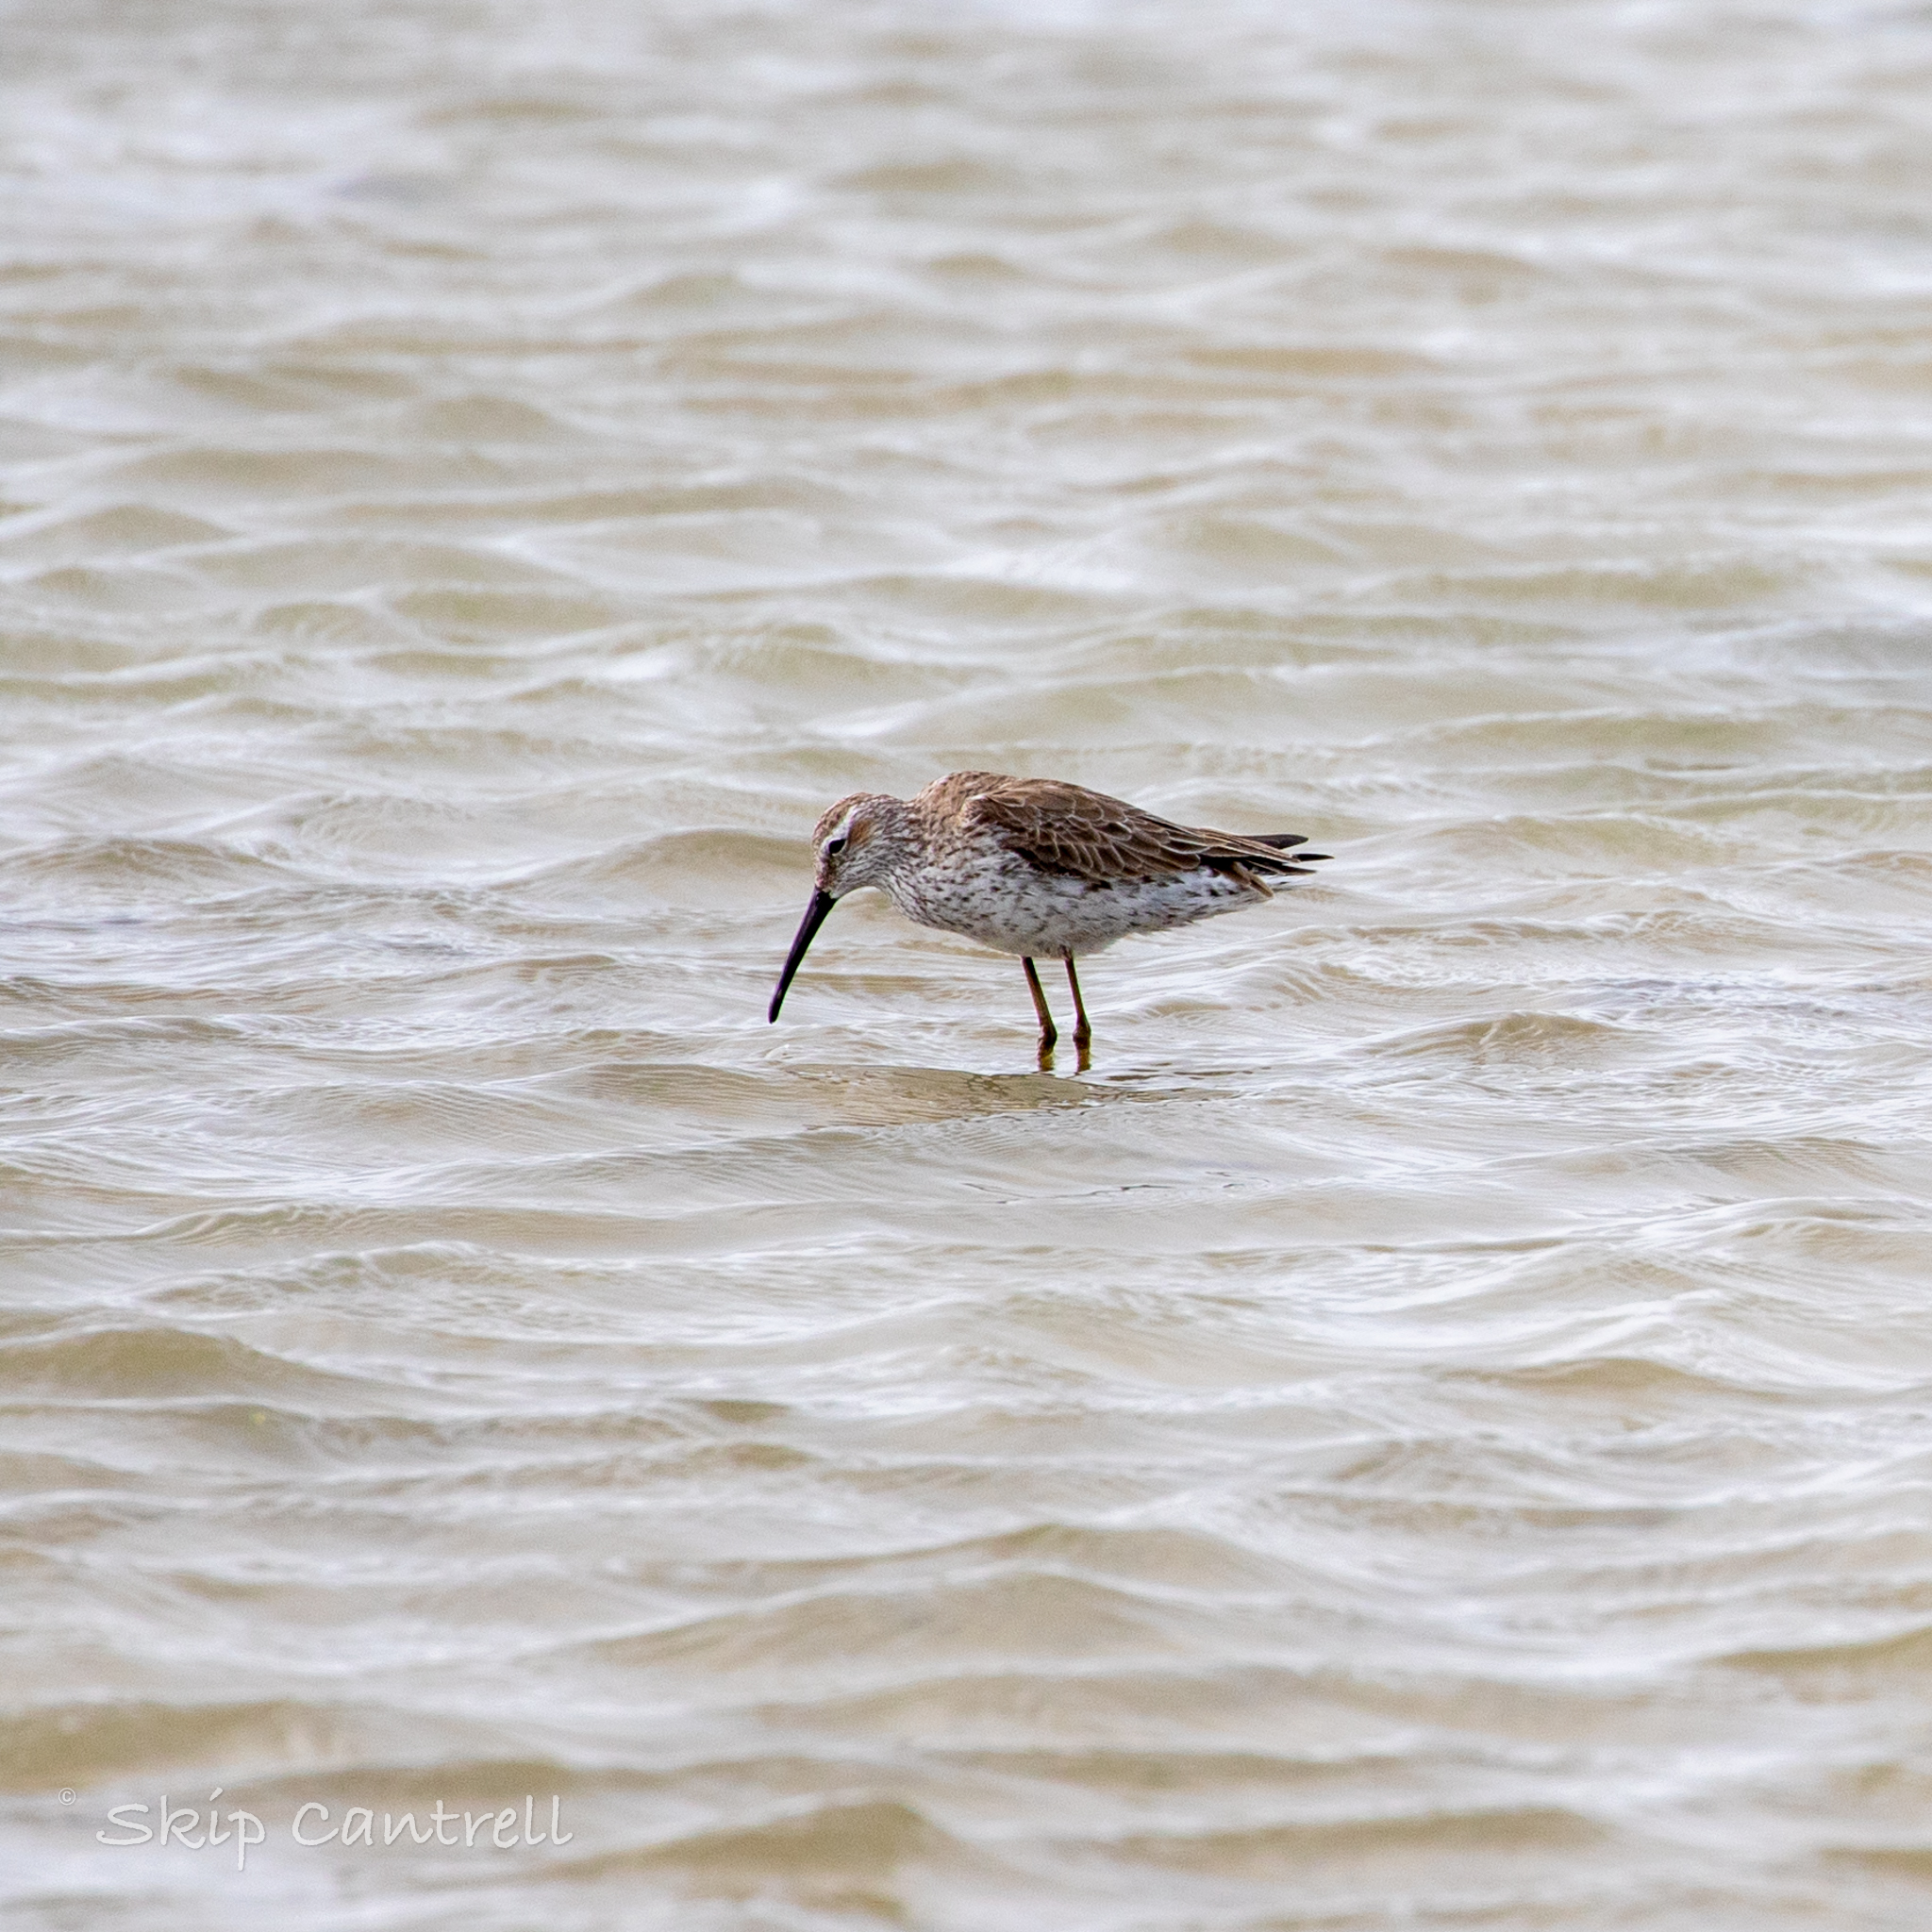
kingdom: Animalia
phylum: Chordata
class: Aves
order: Charadriiformes
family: Scolopacidae
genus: Calidris
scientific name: Calidris himantopus
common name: Stilt sandpiper
